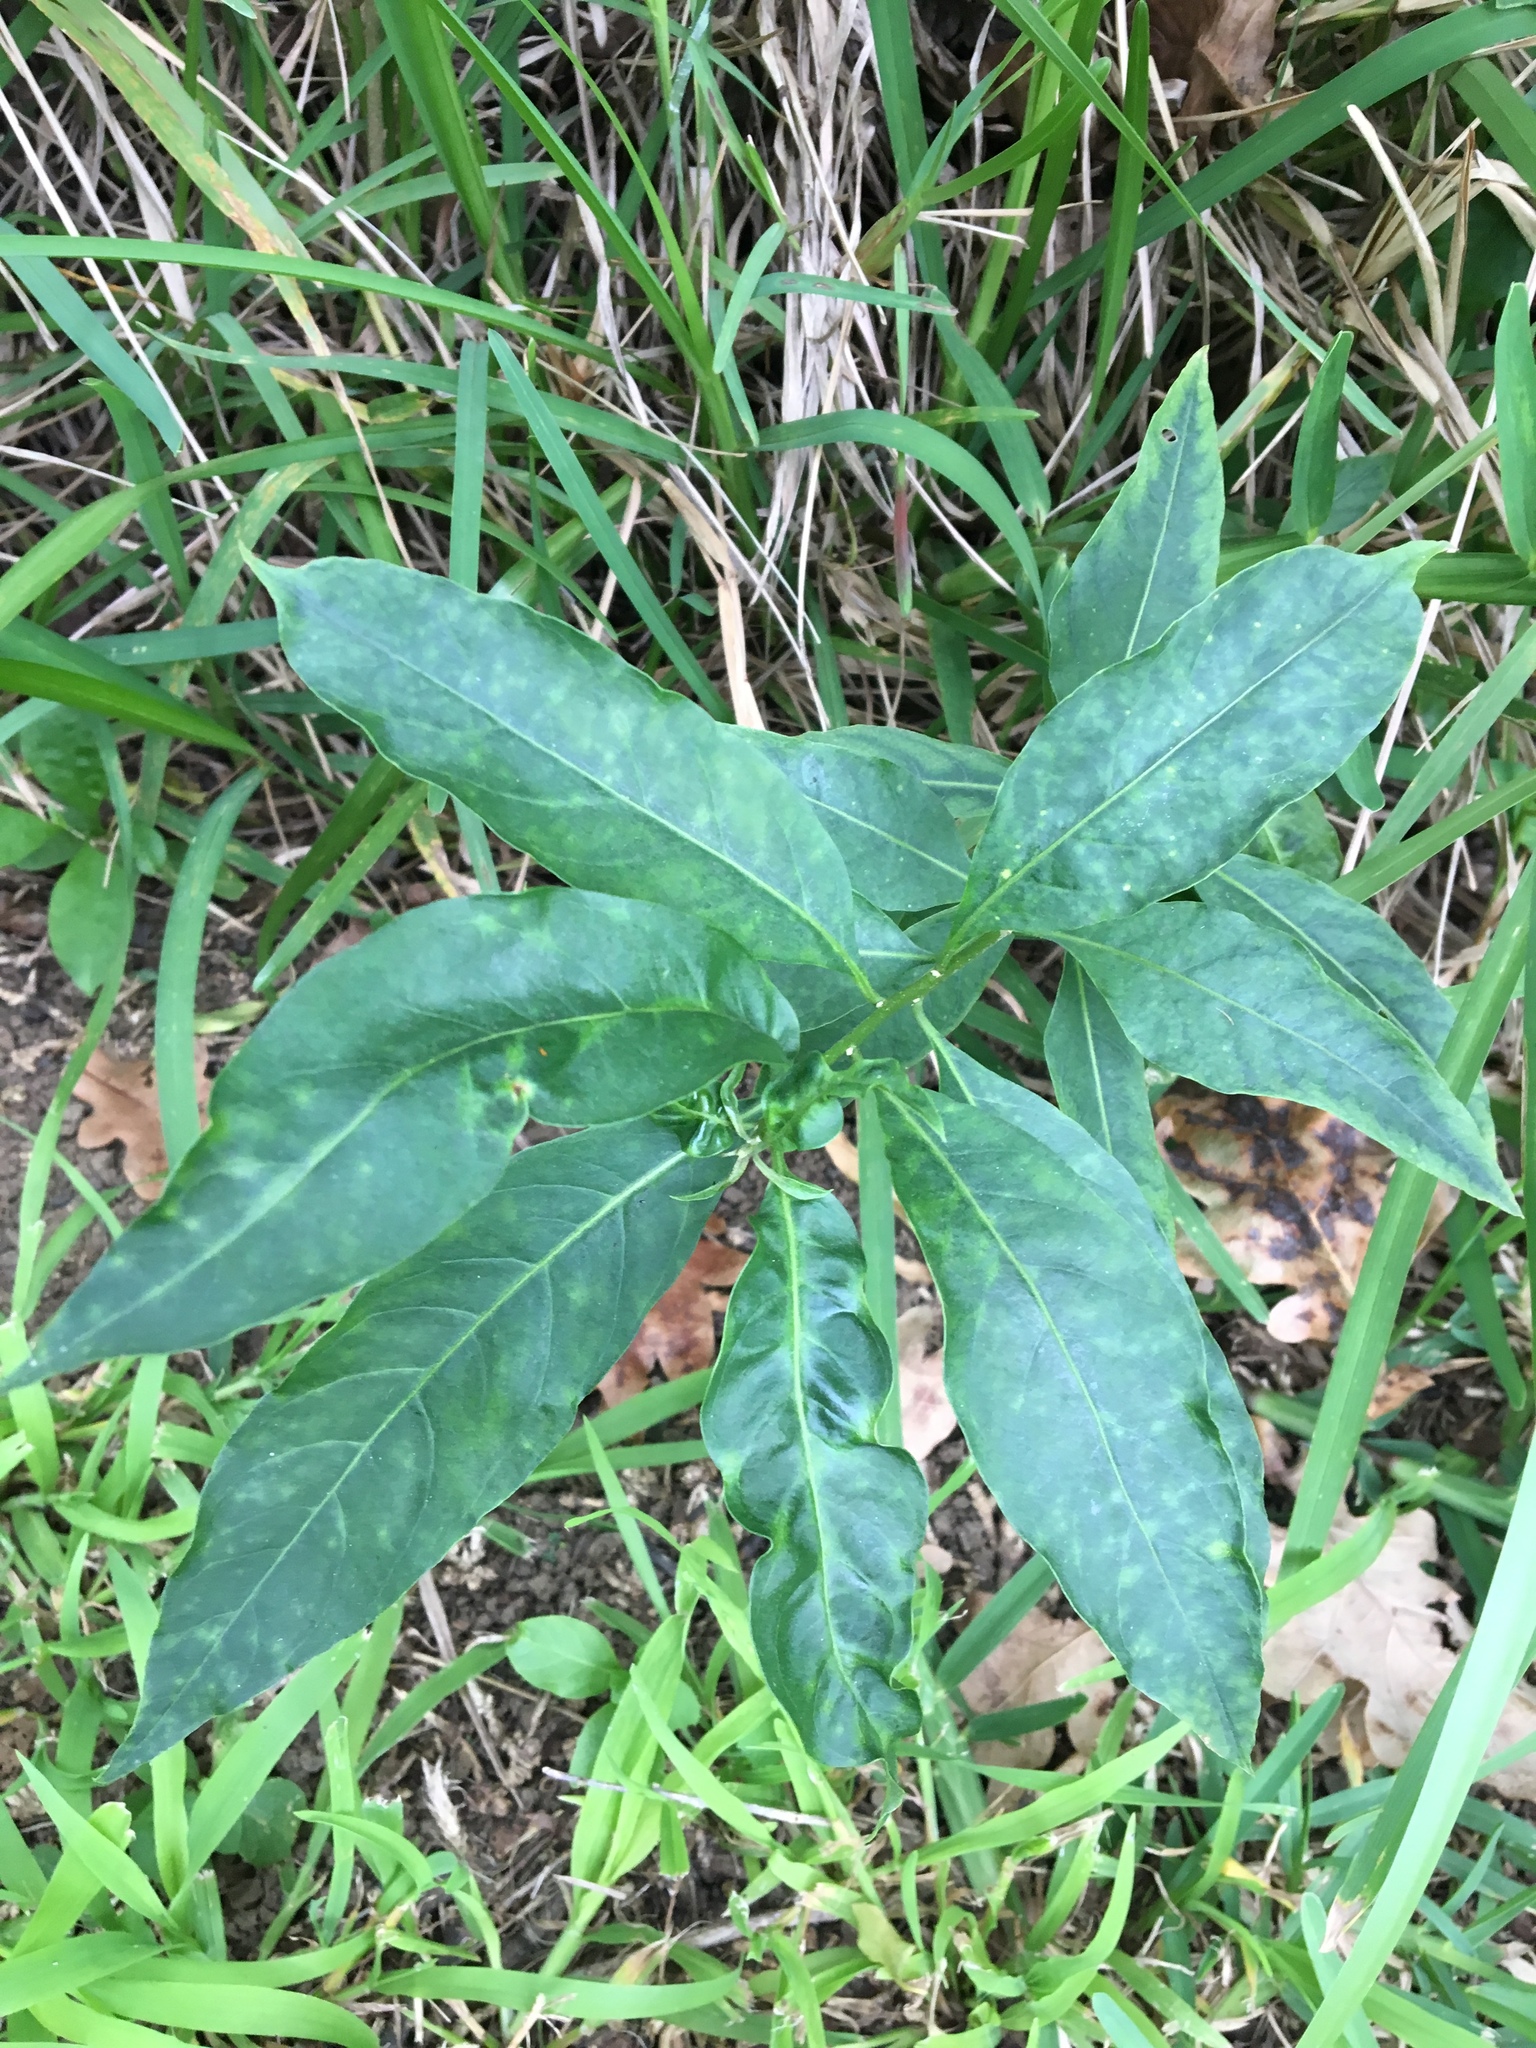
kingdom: Viruses
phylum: Artverviricota
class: Revtraviricetes
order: Ortervirales
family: Caulimoviridae
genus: Soymovirus
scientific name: Soymovirus crispocestri
